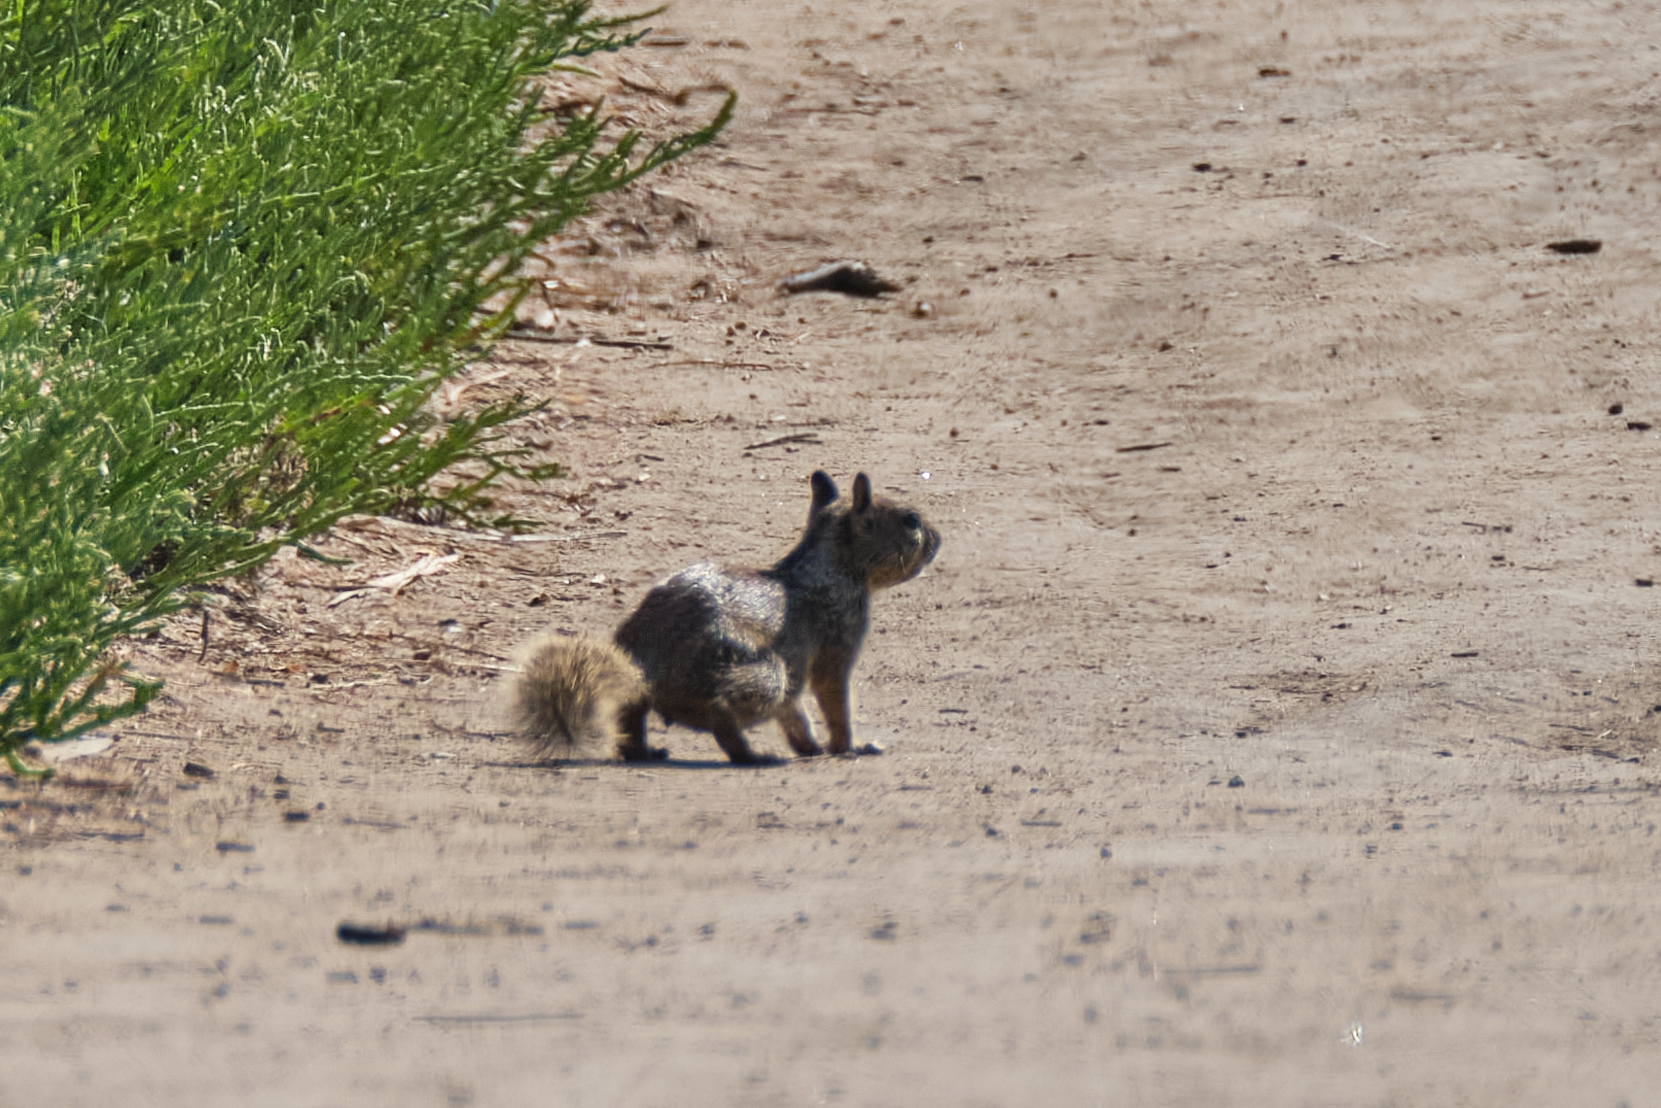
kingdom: Animalia
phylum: Chordata
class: Mammalia
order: Rodentia
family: Sciuridae
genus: Otospermophilus
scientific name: Otospermophilus beecheyi
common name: California ground squirrel
